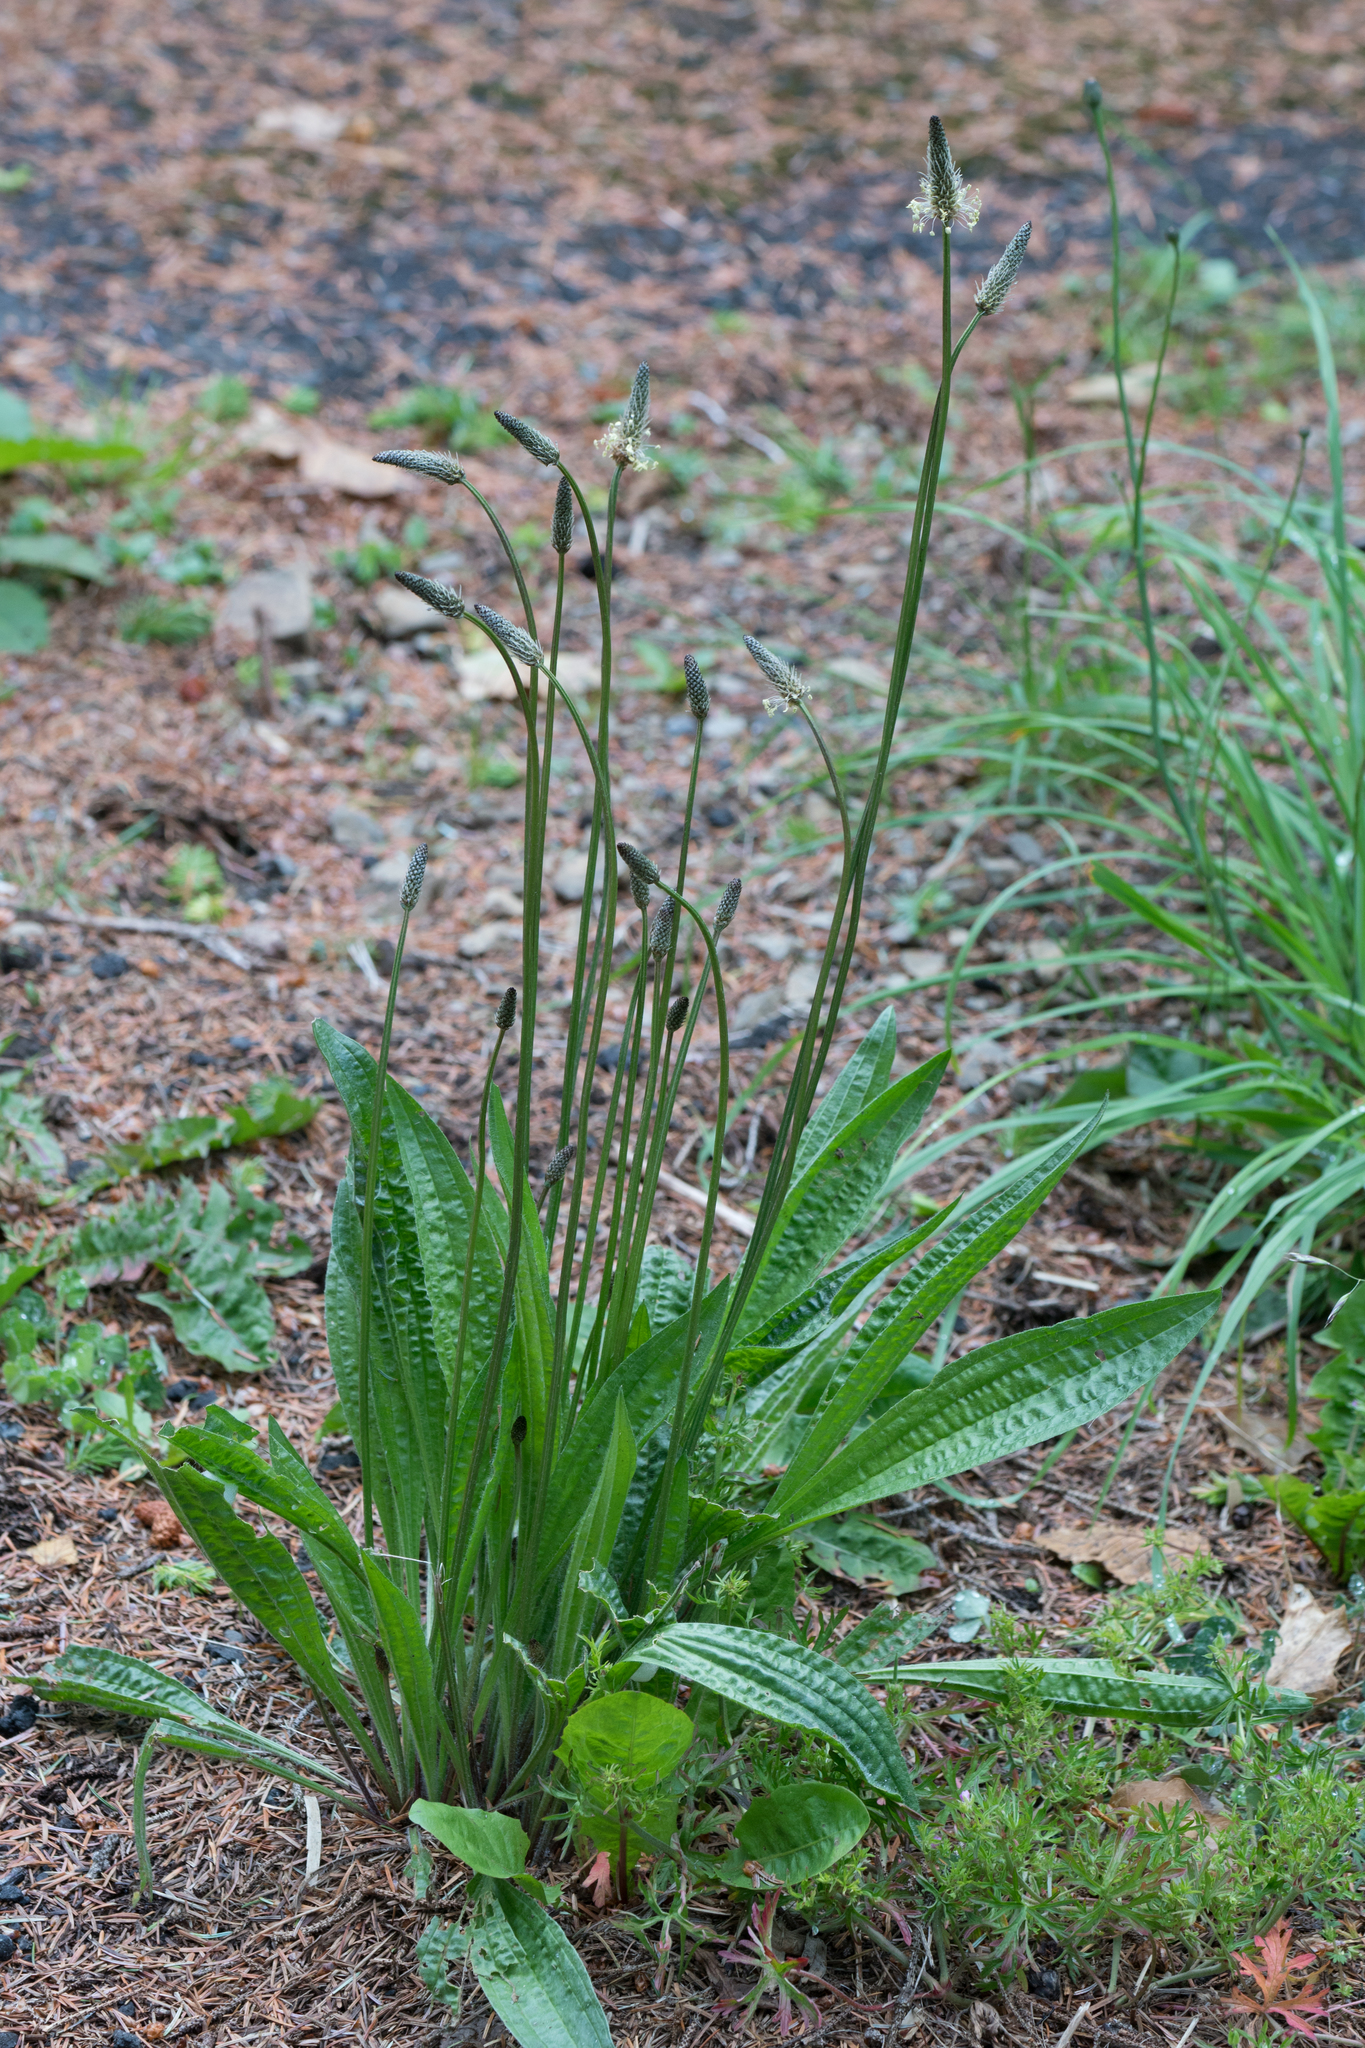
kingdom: Plantae
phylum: Tracheophyta
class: Magnoliopsida
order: Lamiales
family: Plantaginaceae
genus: Plantago
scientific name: Plantago lanceolata
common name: Ribwort plantain
